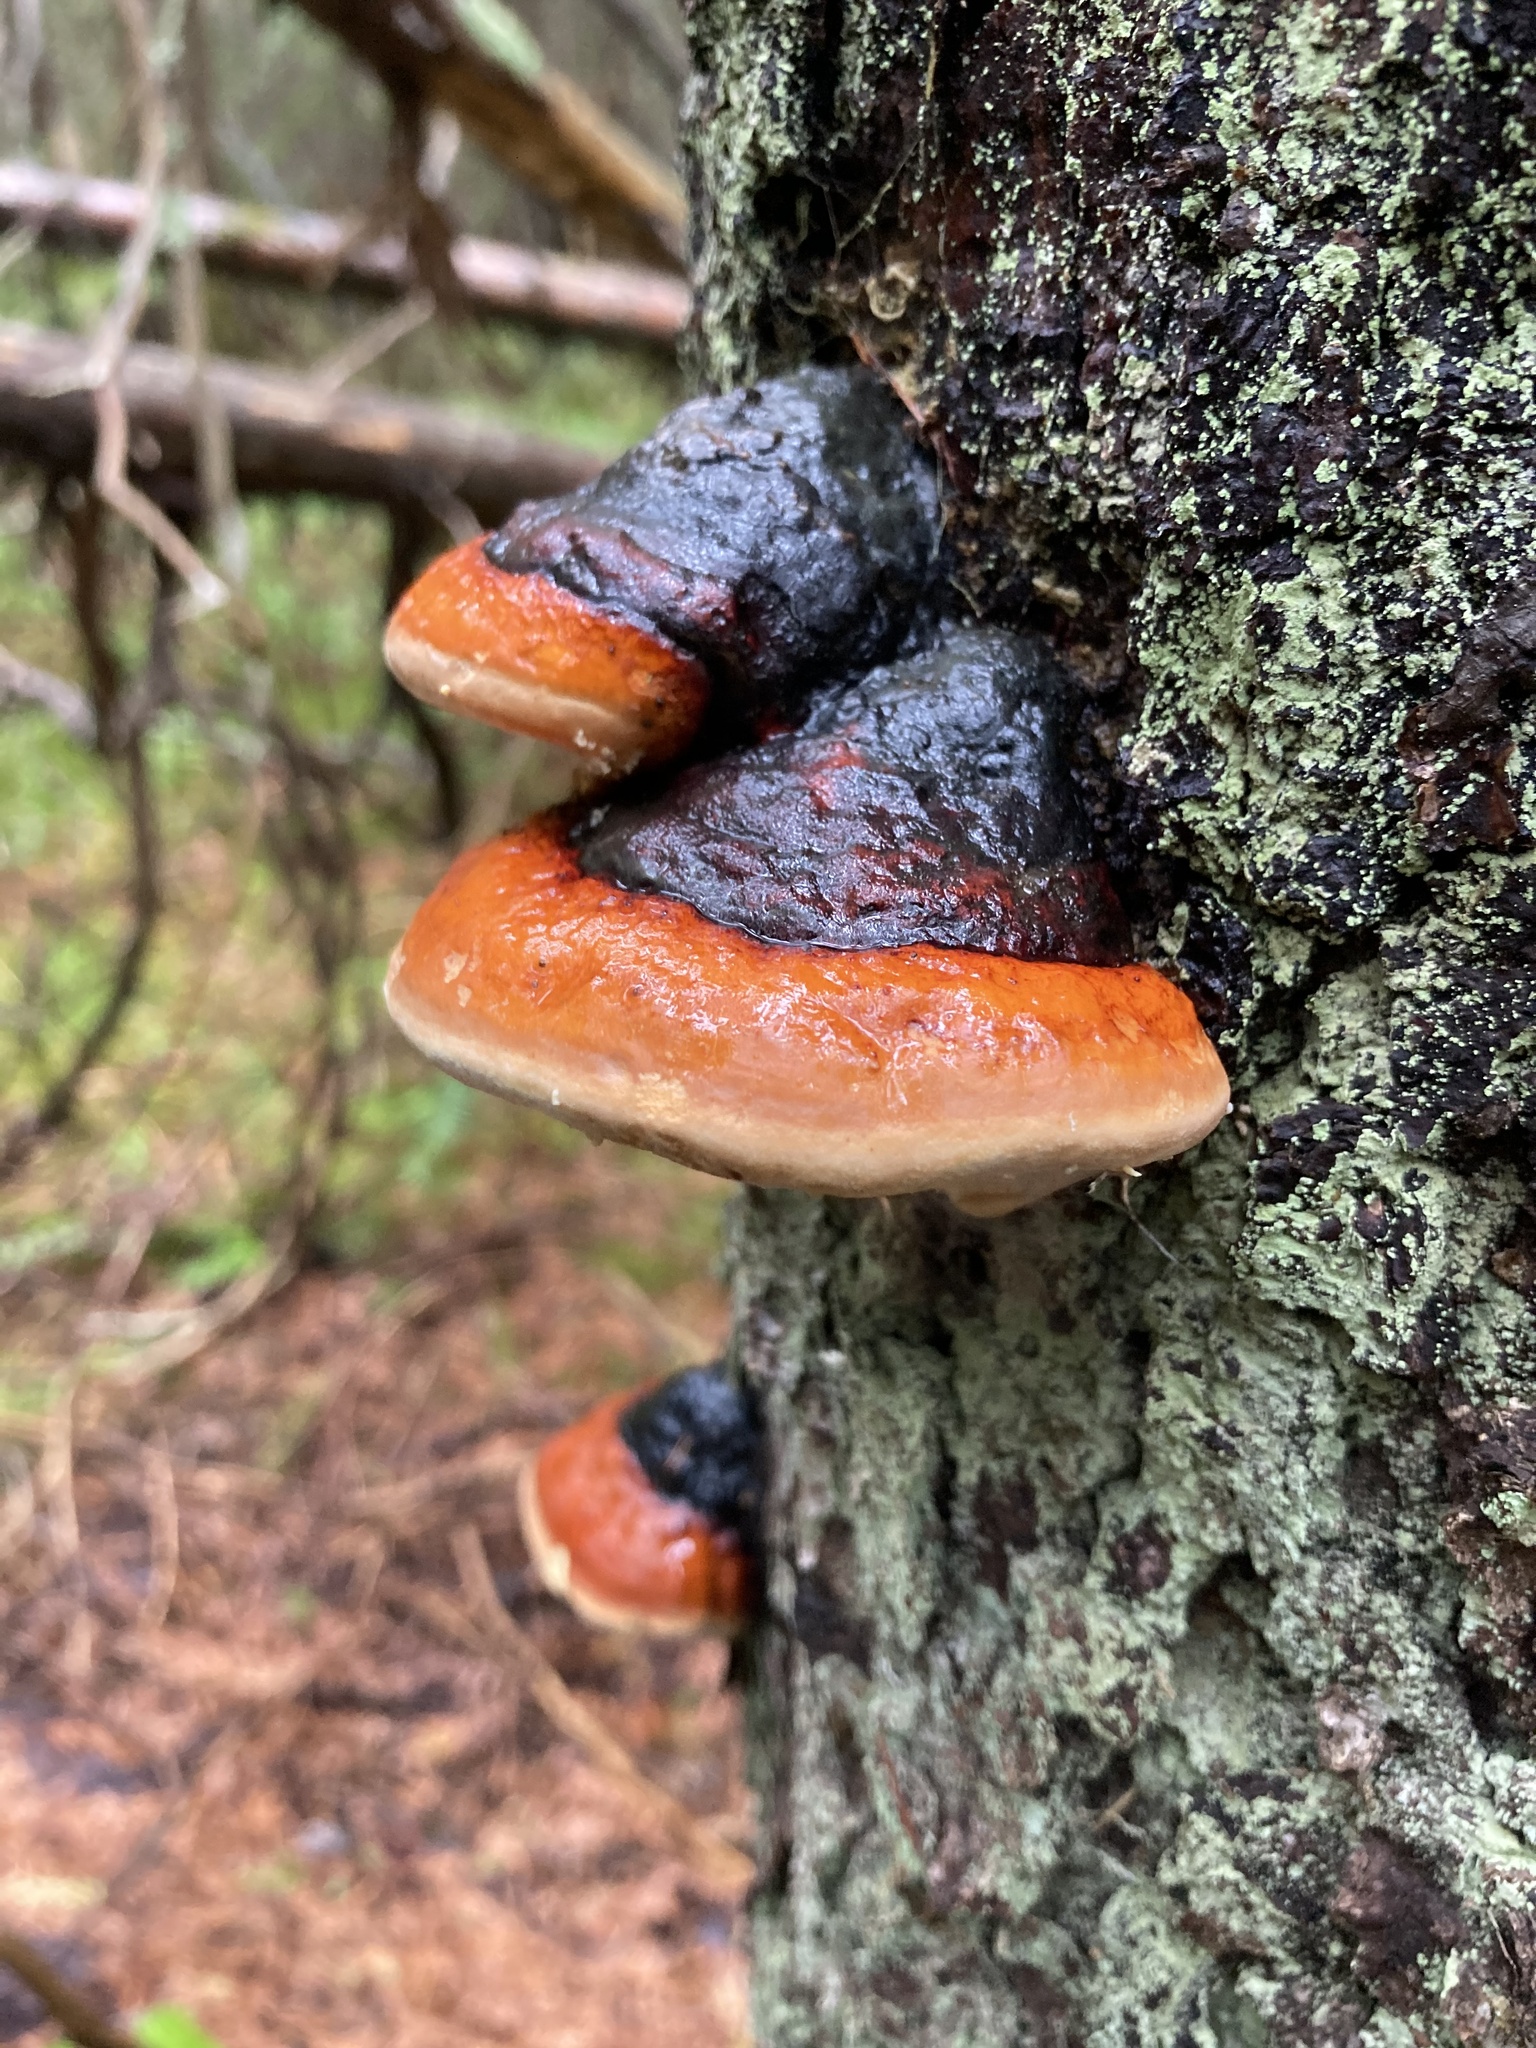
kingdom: Fungi
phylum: Basidiomycota
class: Agaricomycetes
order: Polyporales
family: Fomitopsidaceae
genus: Fomitopsis
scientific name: Fomitopsis mounceae
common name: Northern red belt
